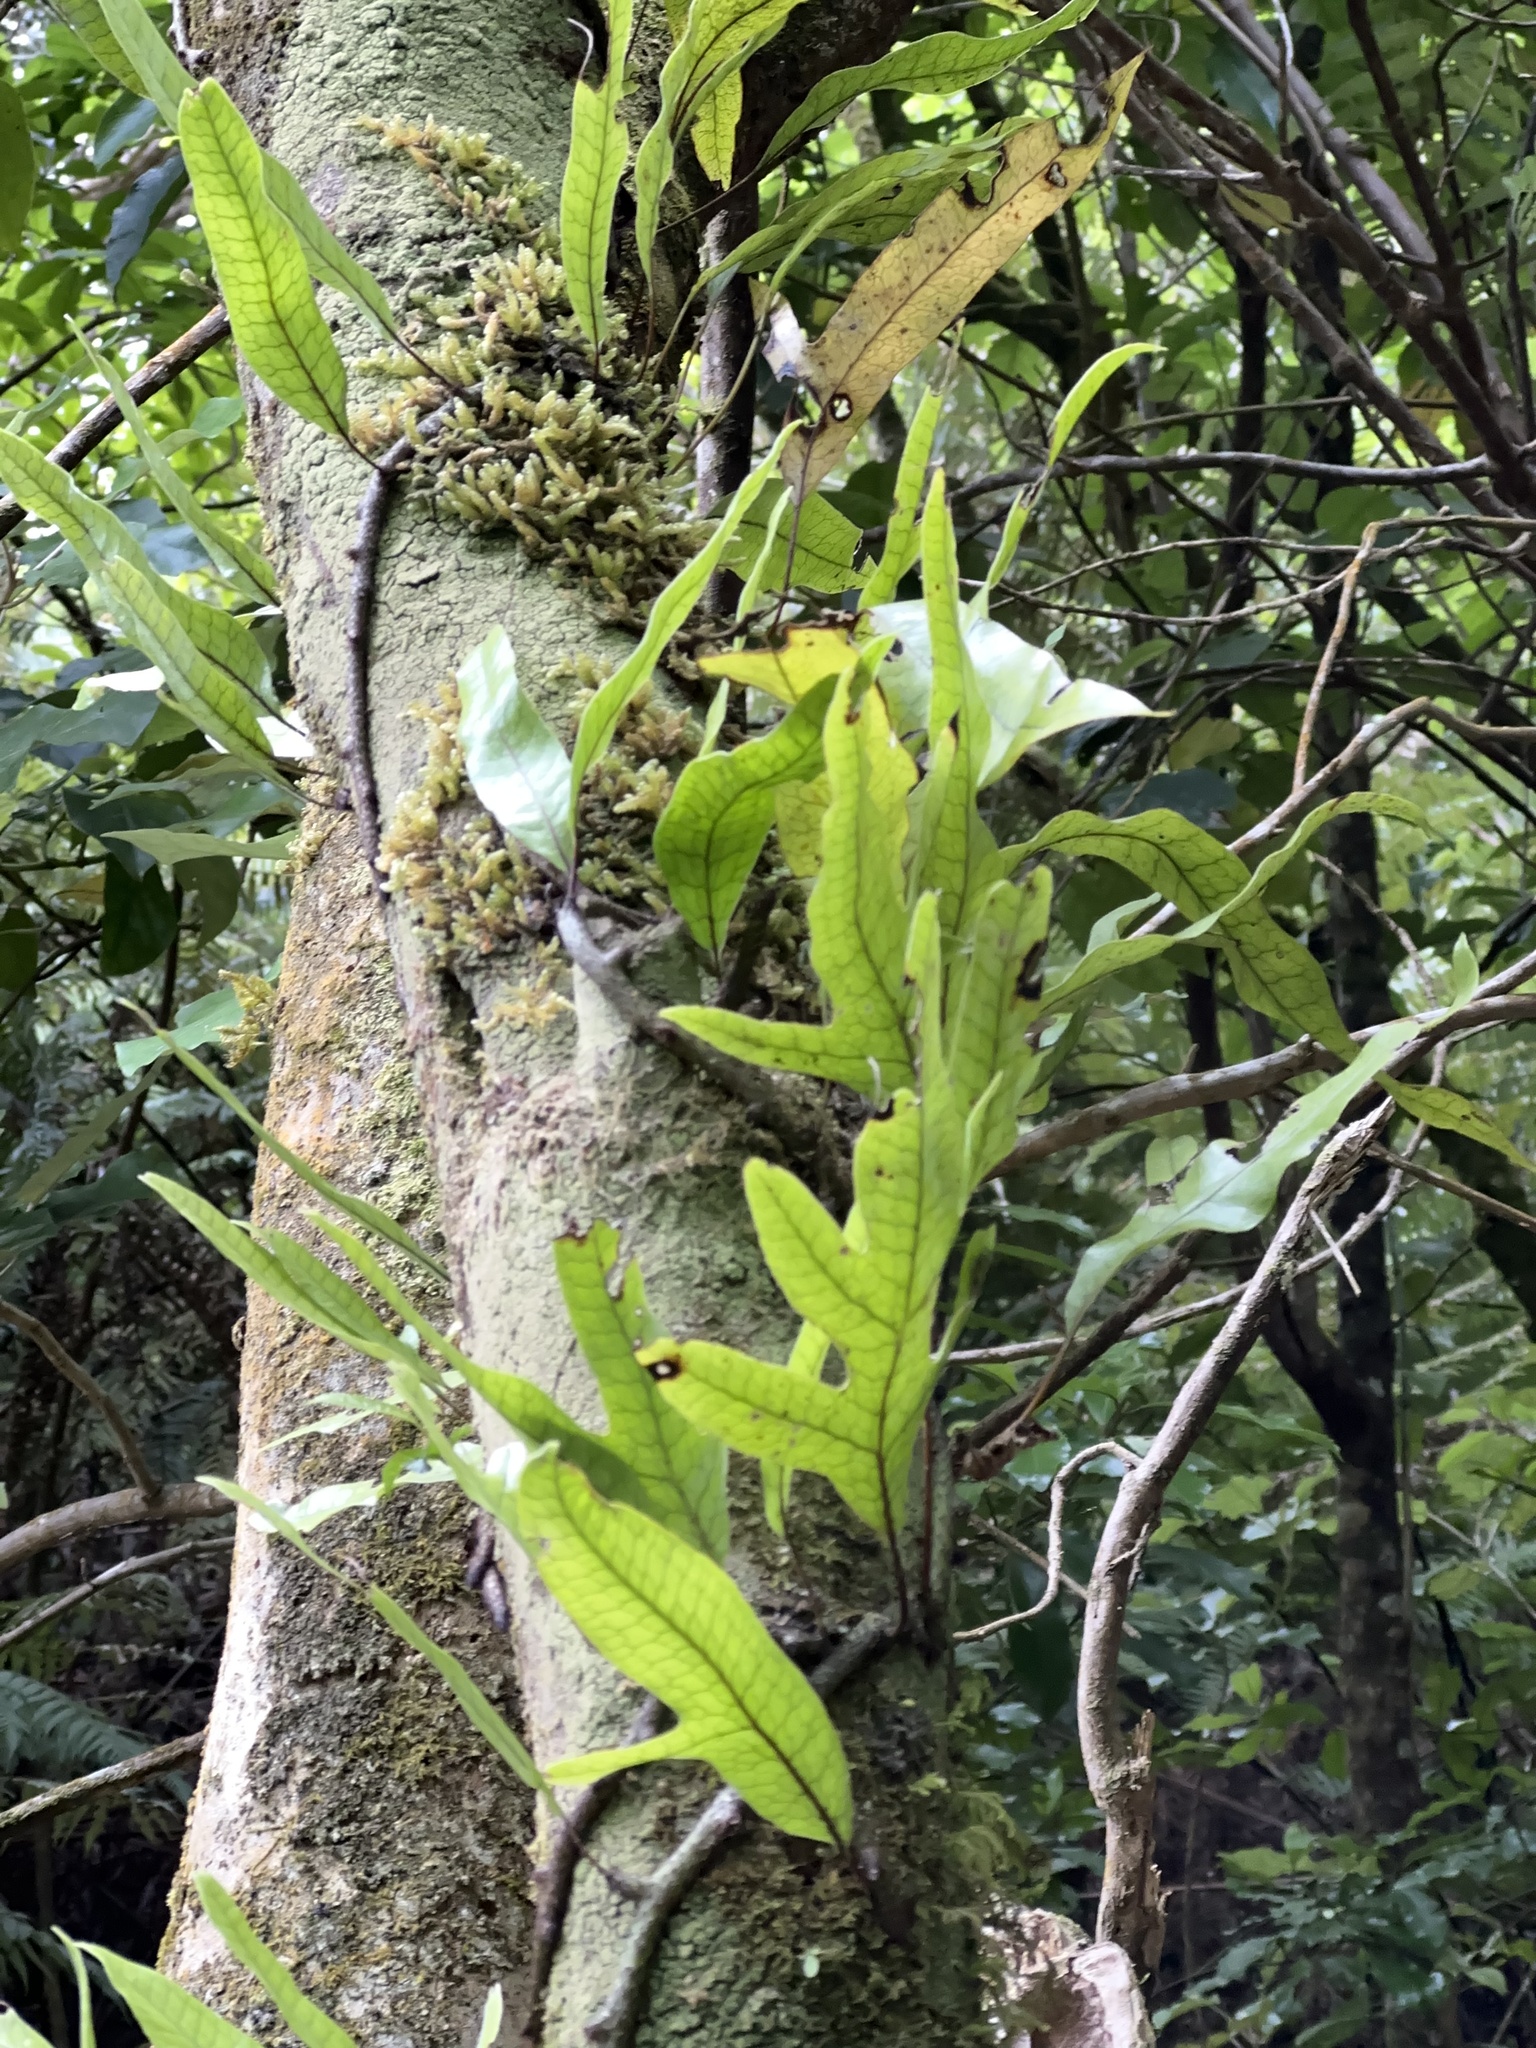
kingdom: Plantae
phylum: Tracheophyta
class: Polypodiopsida
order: Polypodiales
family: Polypodiaceae
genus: Lecanopteris
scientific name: Lecanopteris pustulata
